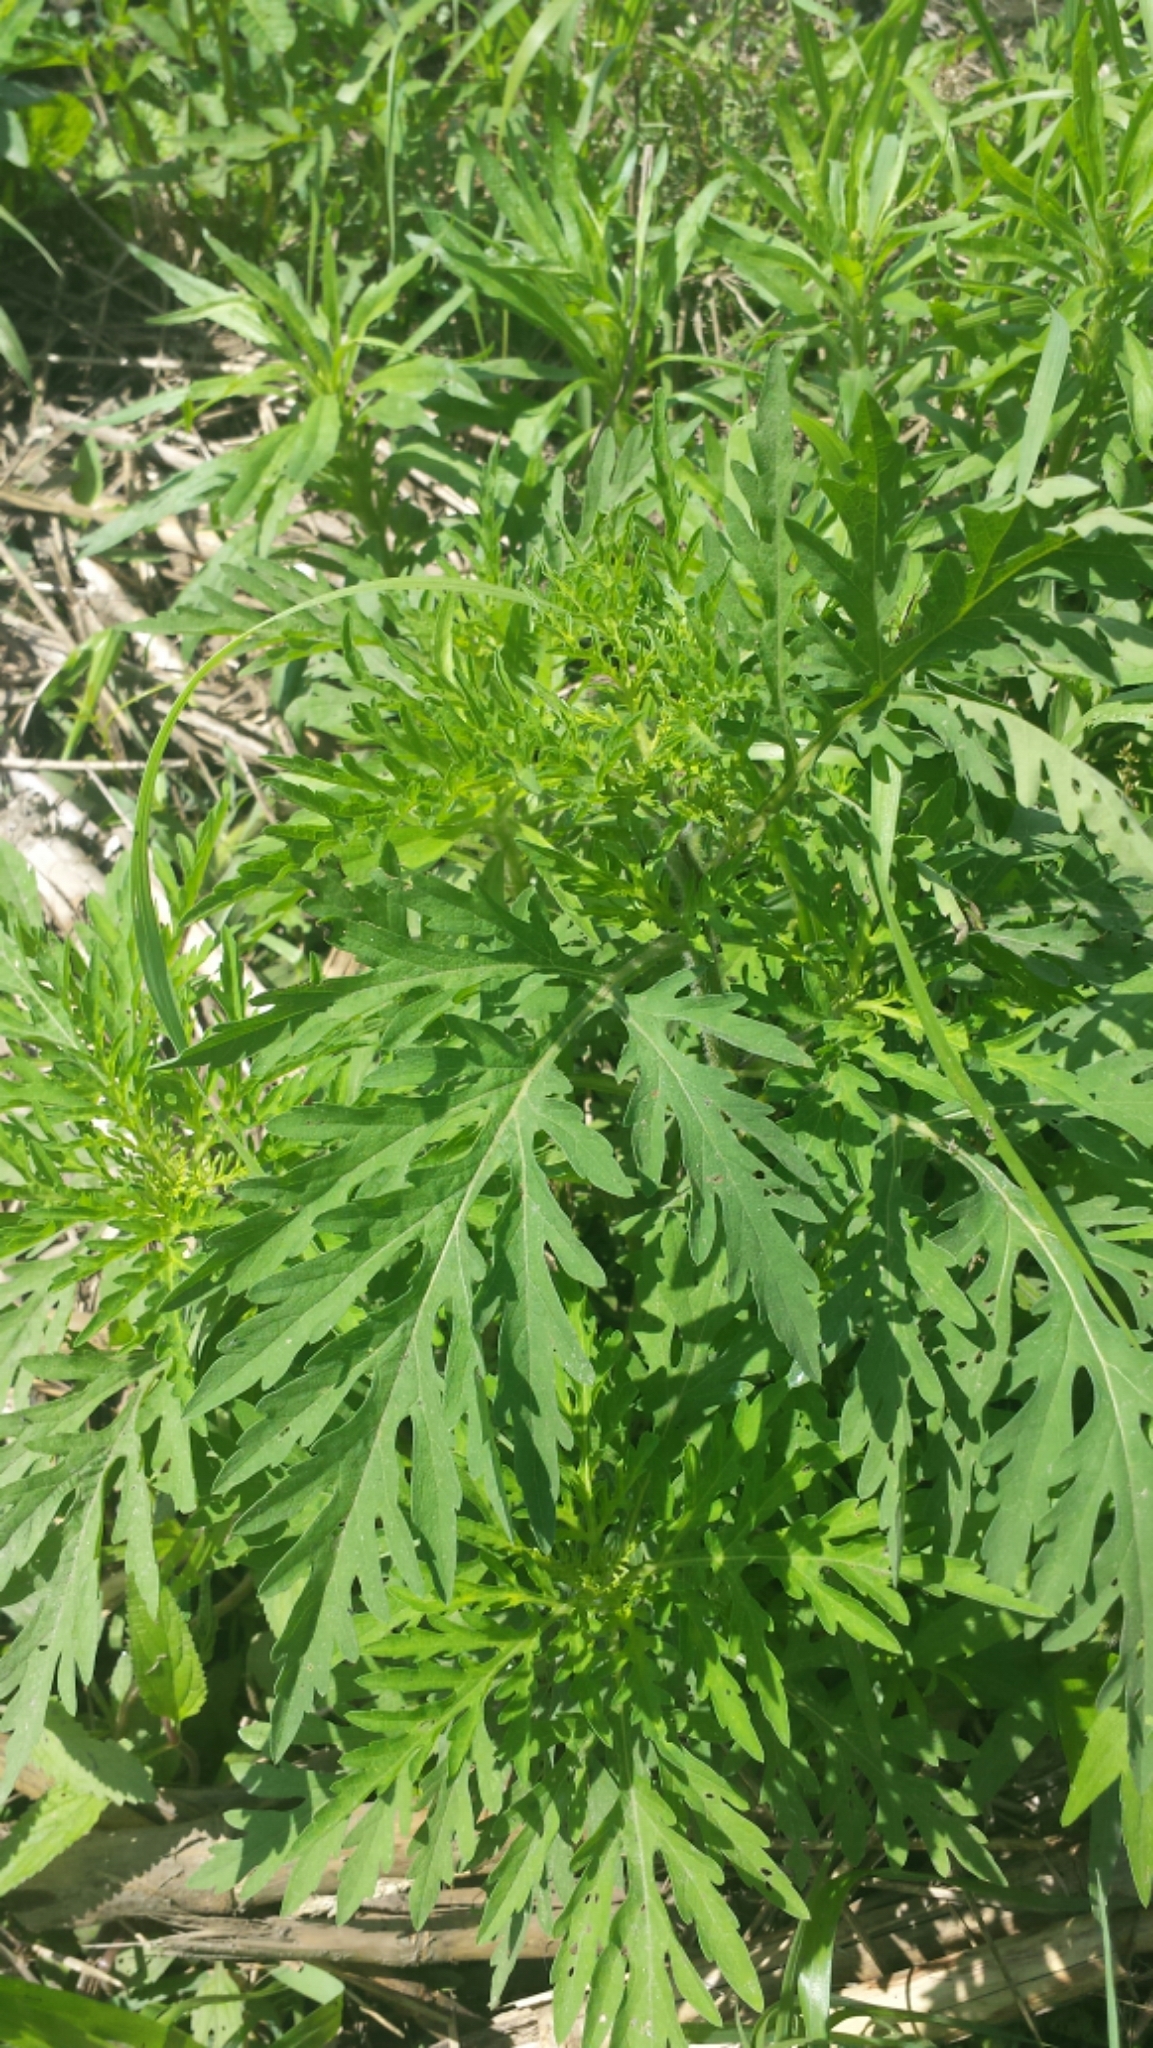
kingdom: Plantae
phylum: Tracheophyta
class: Magnoliopsida
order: Asterales
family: Asteraceae
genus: Ambrosia
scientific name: Ambrosia artemisiifolia
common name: Annual ragweed
